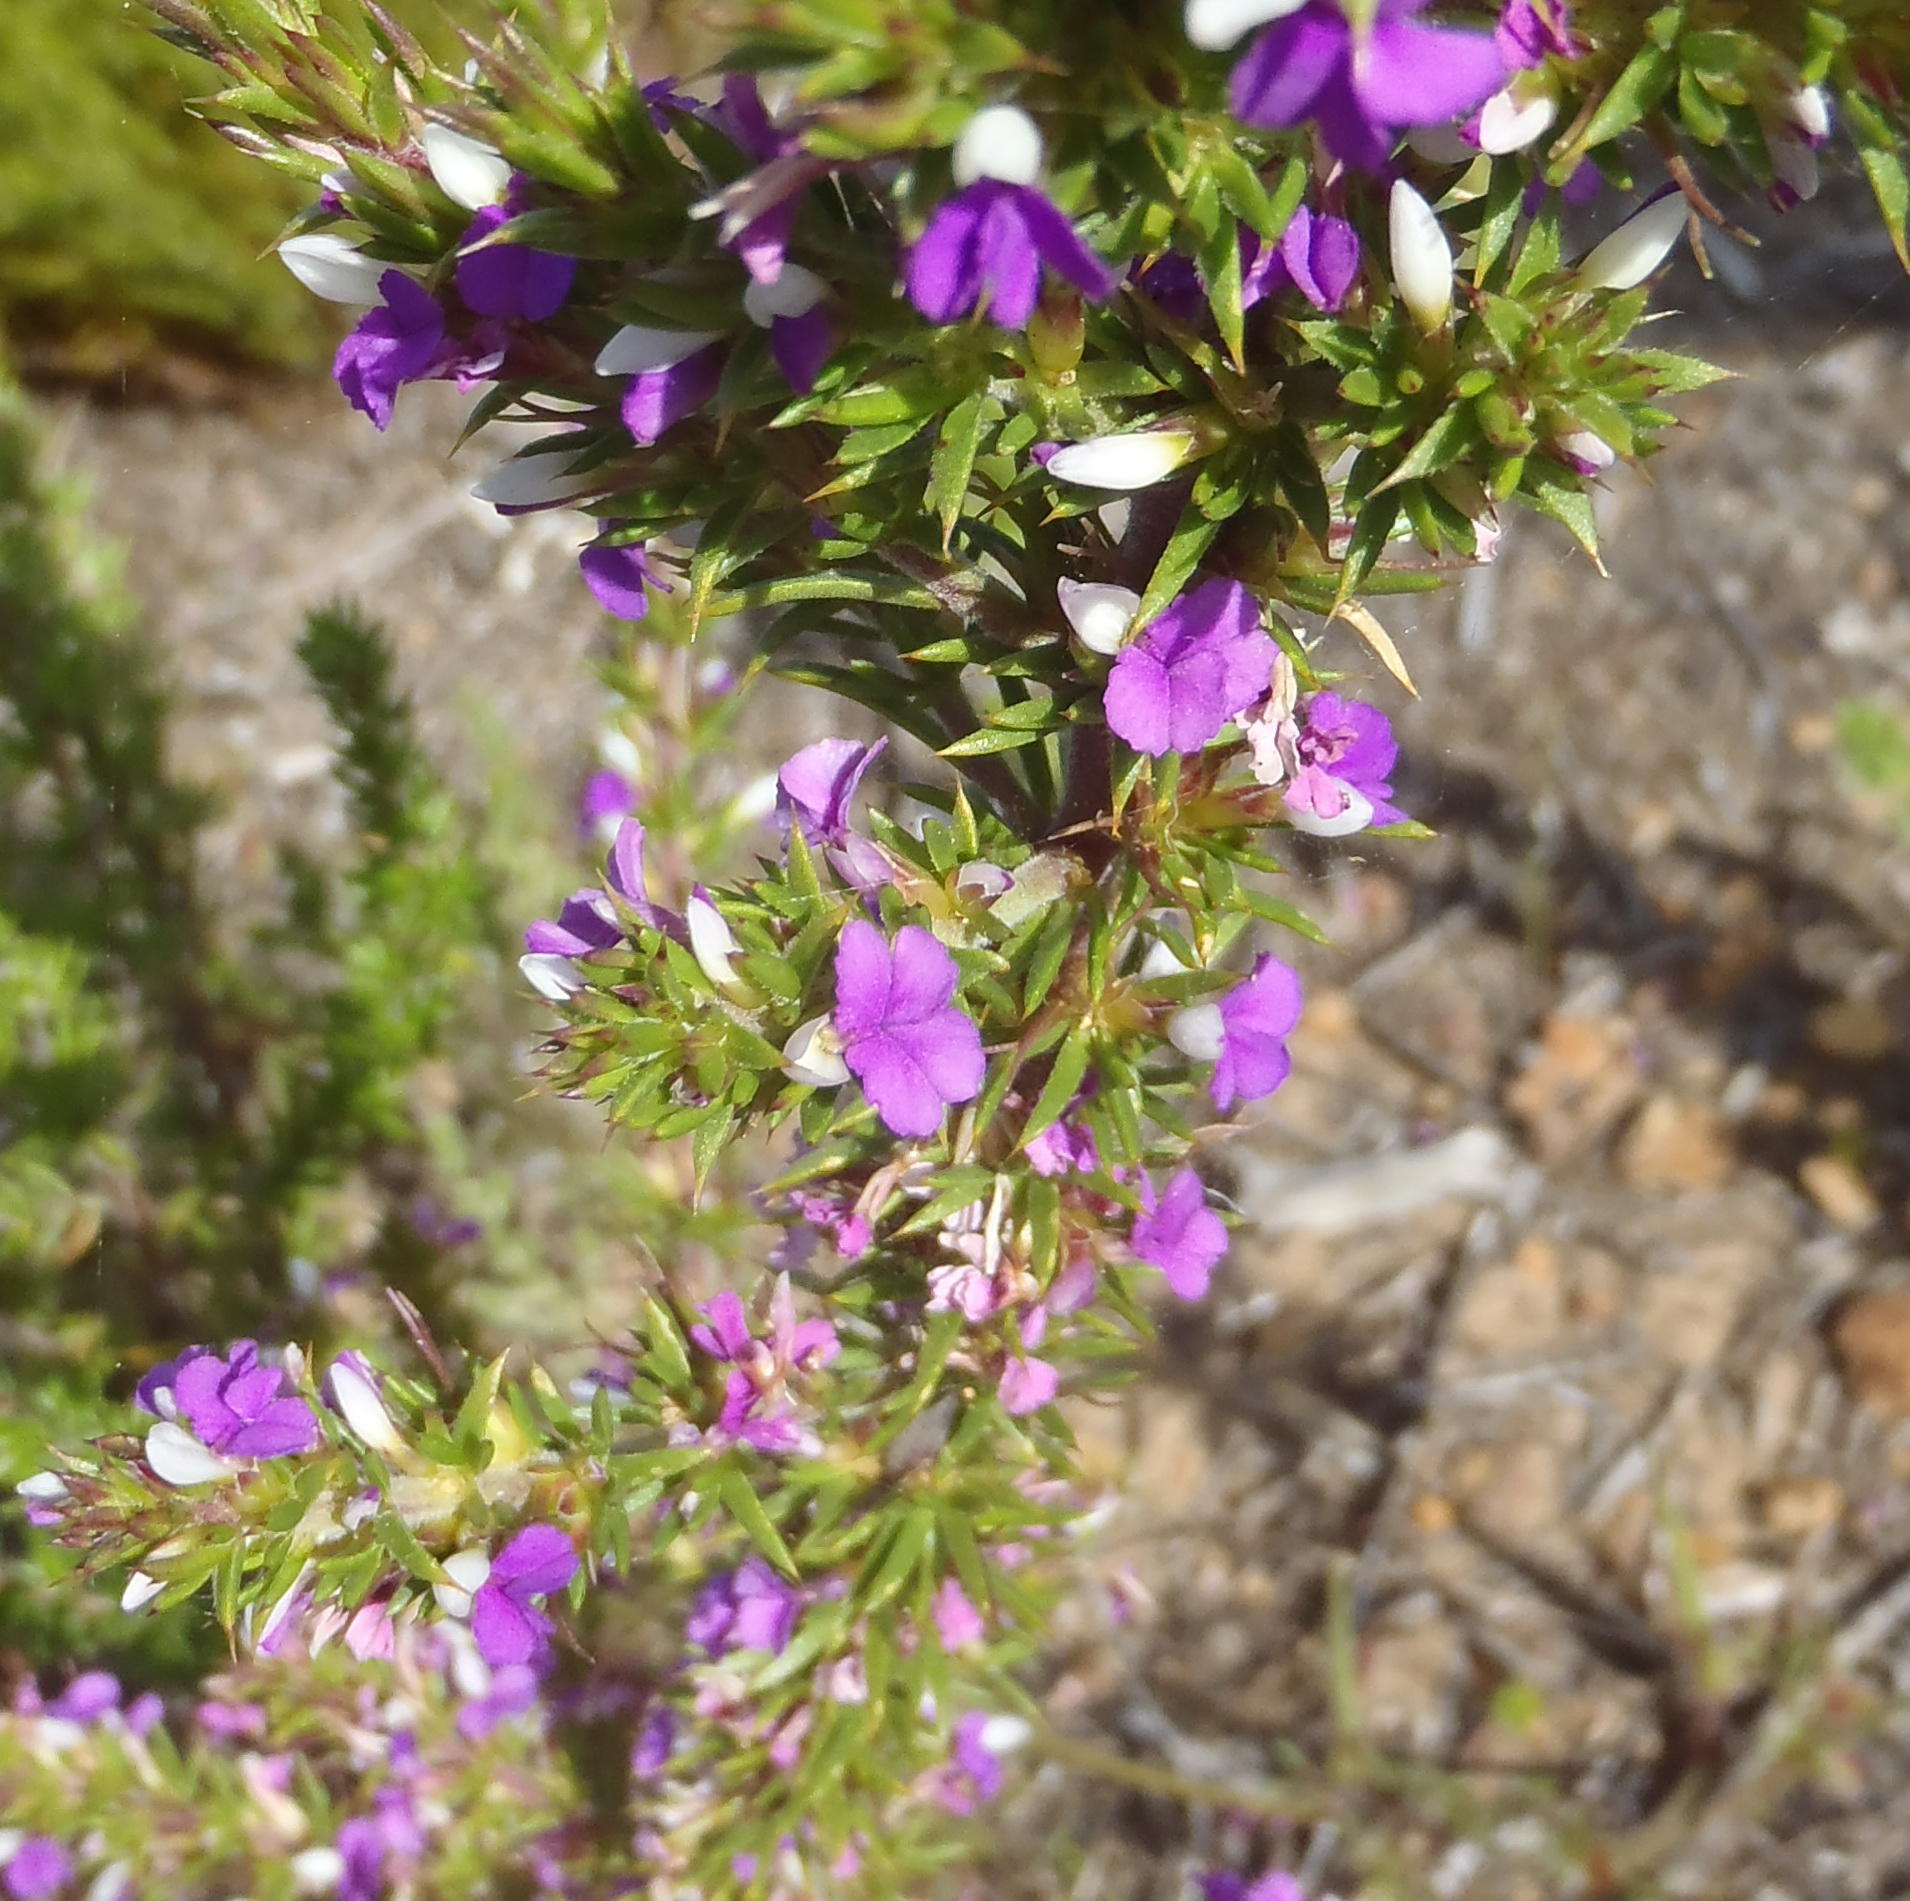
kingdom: Plantae
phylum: Tracheophyta
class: Magnoliopsida
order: Fabales
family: Polygalaceae
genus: Muraltia
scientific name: Muraltia heisteria
